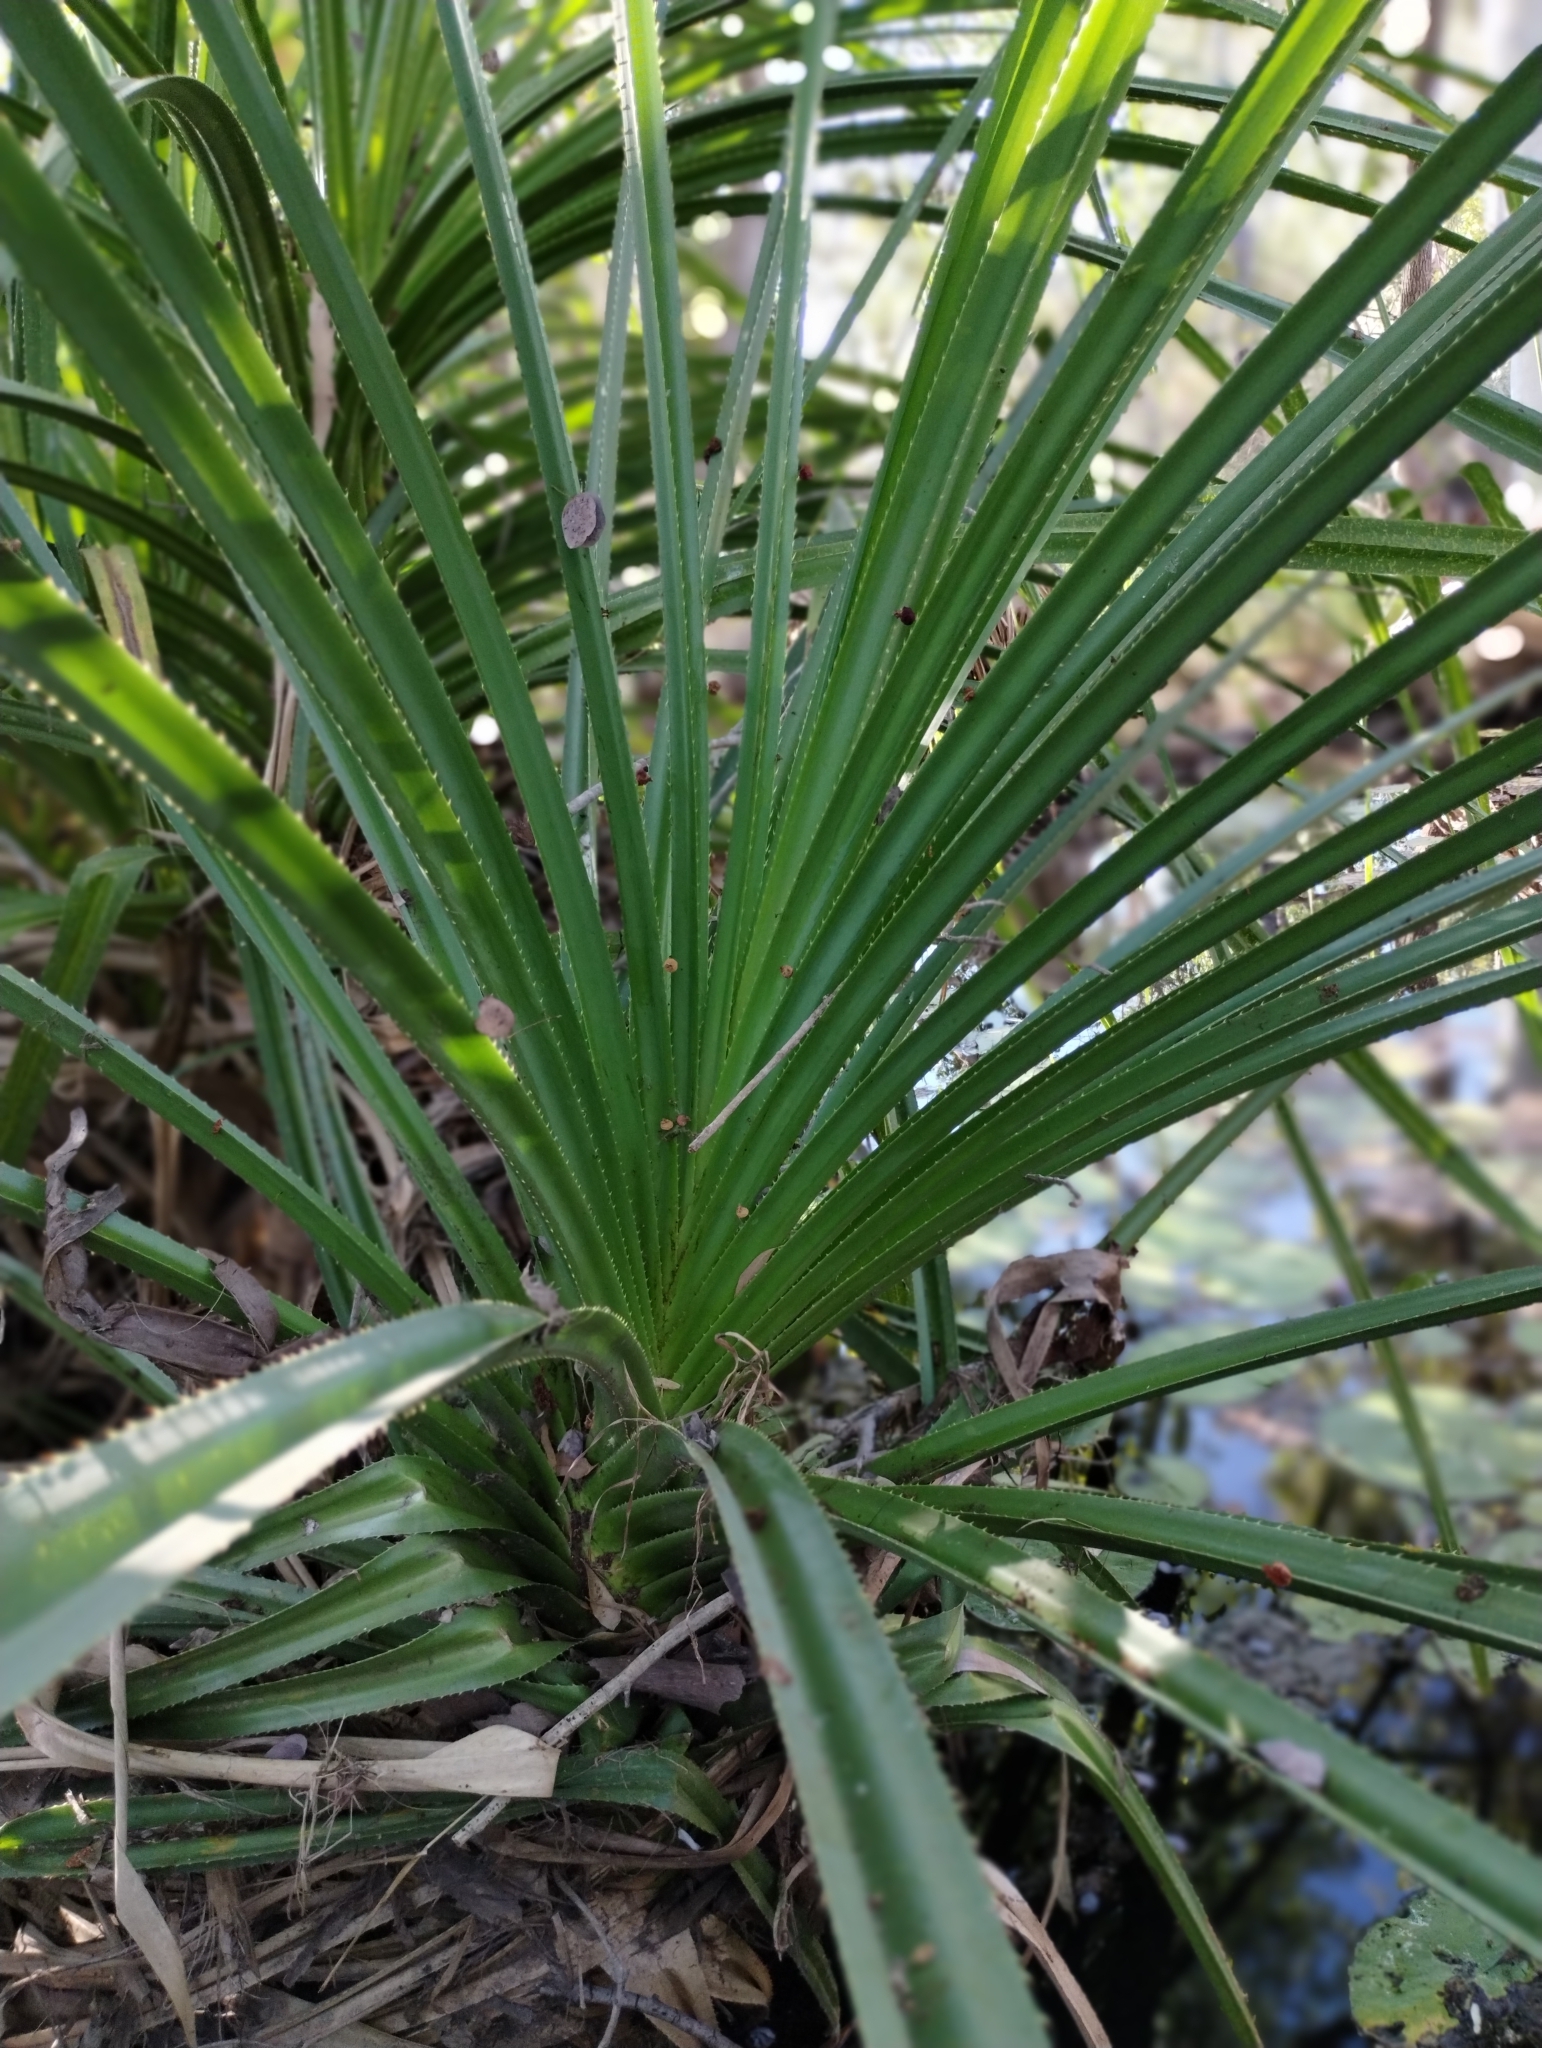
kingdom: Plantae
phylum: Tracheophyta
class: Liliopsida
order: Pandanales
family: Pandanaceae
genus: Pandanus
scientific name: Pandanus spiralis
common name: Screw-pine
